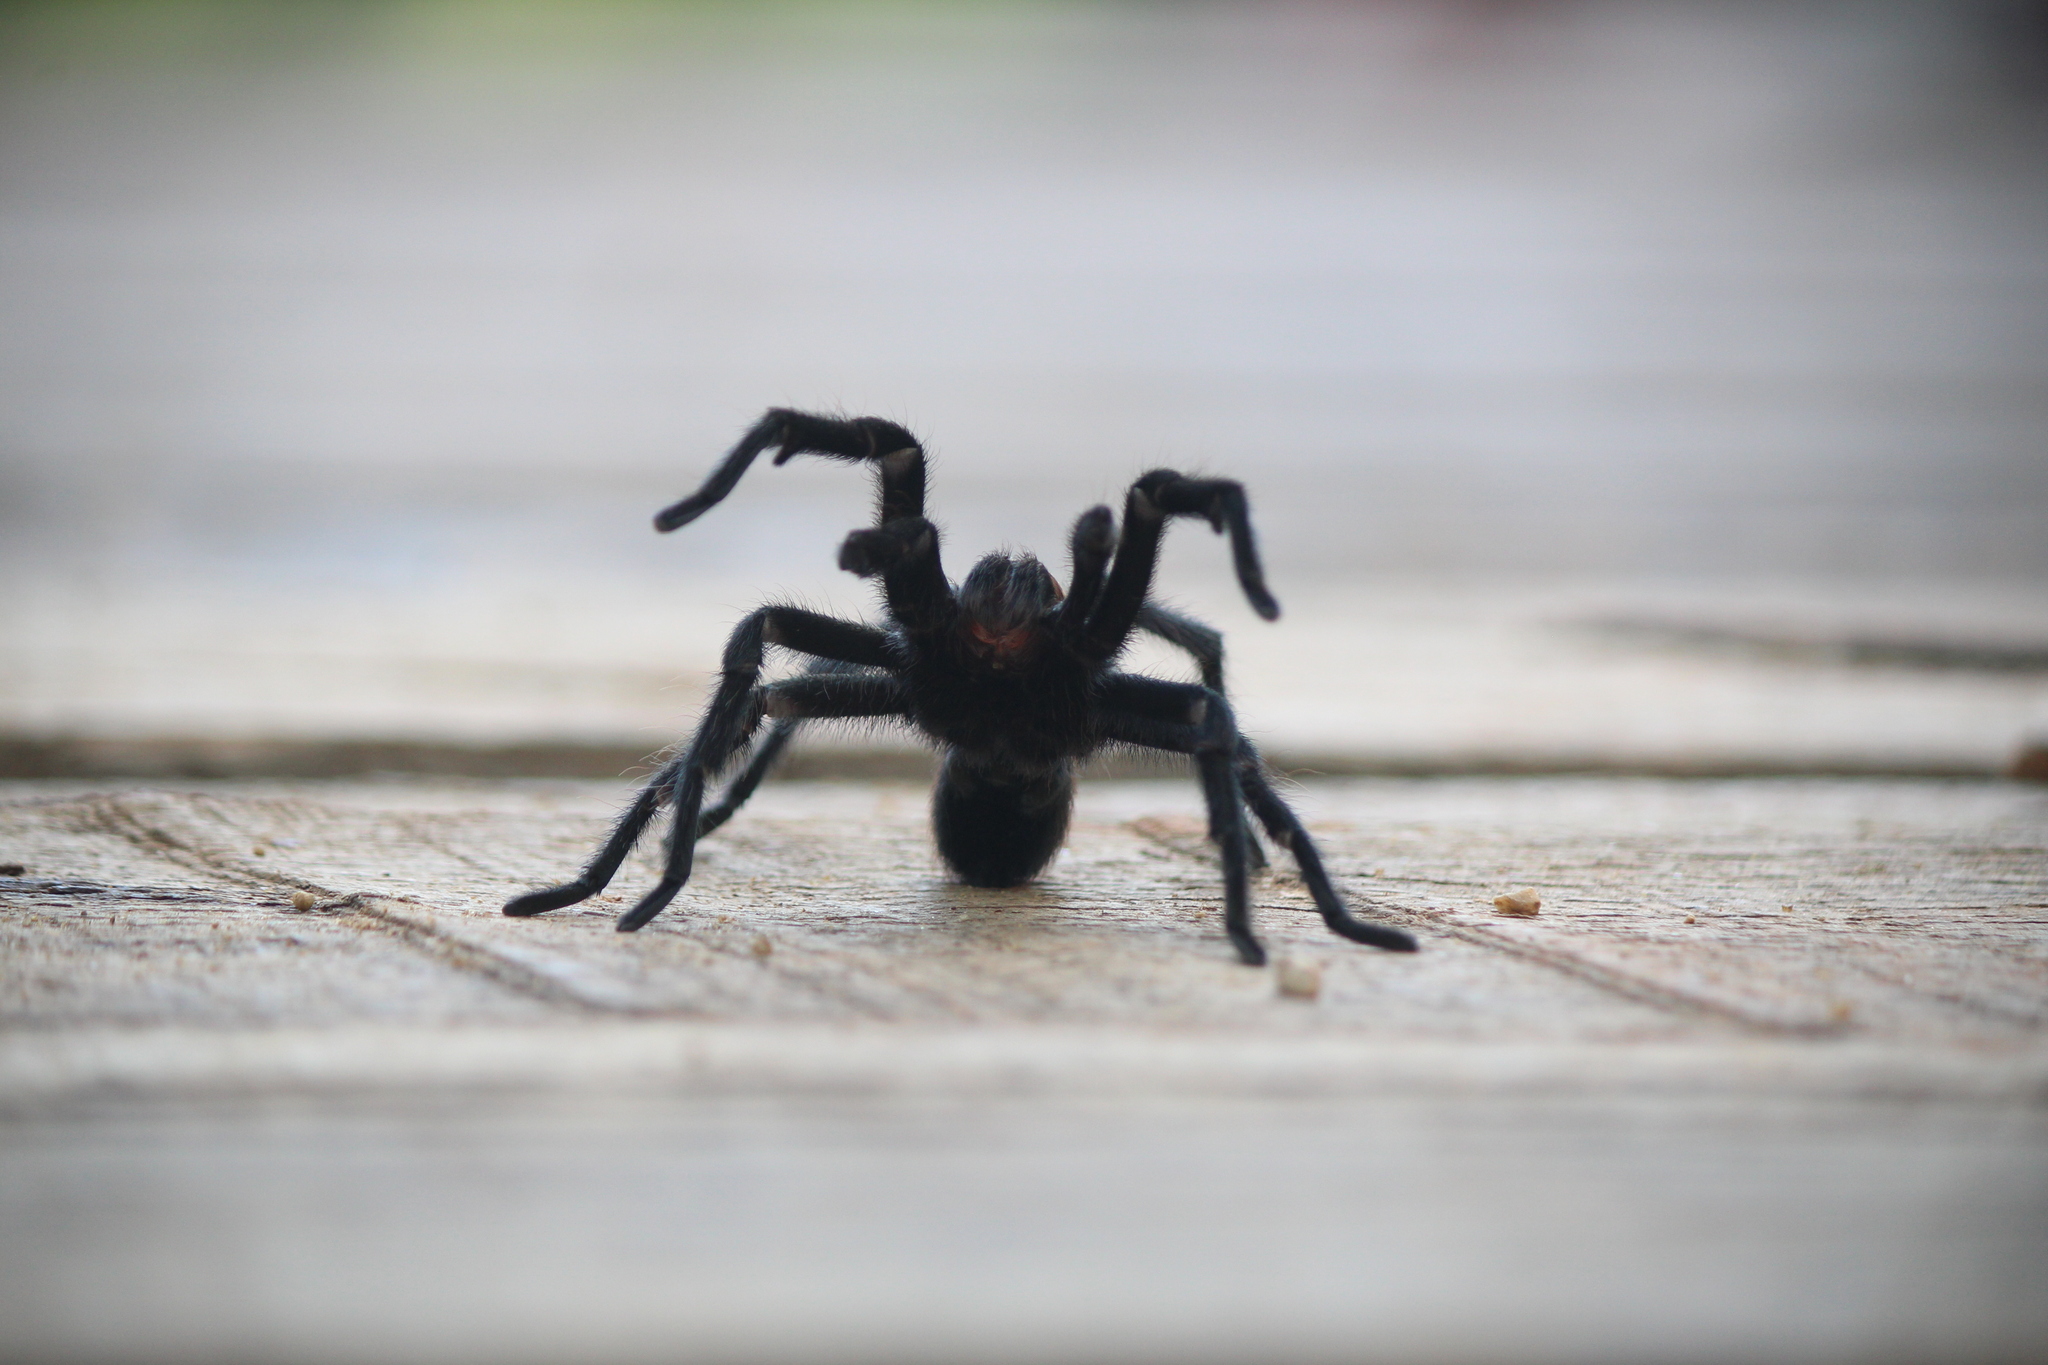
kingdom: Animalia
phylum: Arthropoda
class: Arachnida
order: Araneae
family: Theraphosidae
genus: Aphonopelma
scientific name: Aphonopelma hentzi
